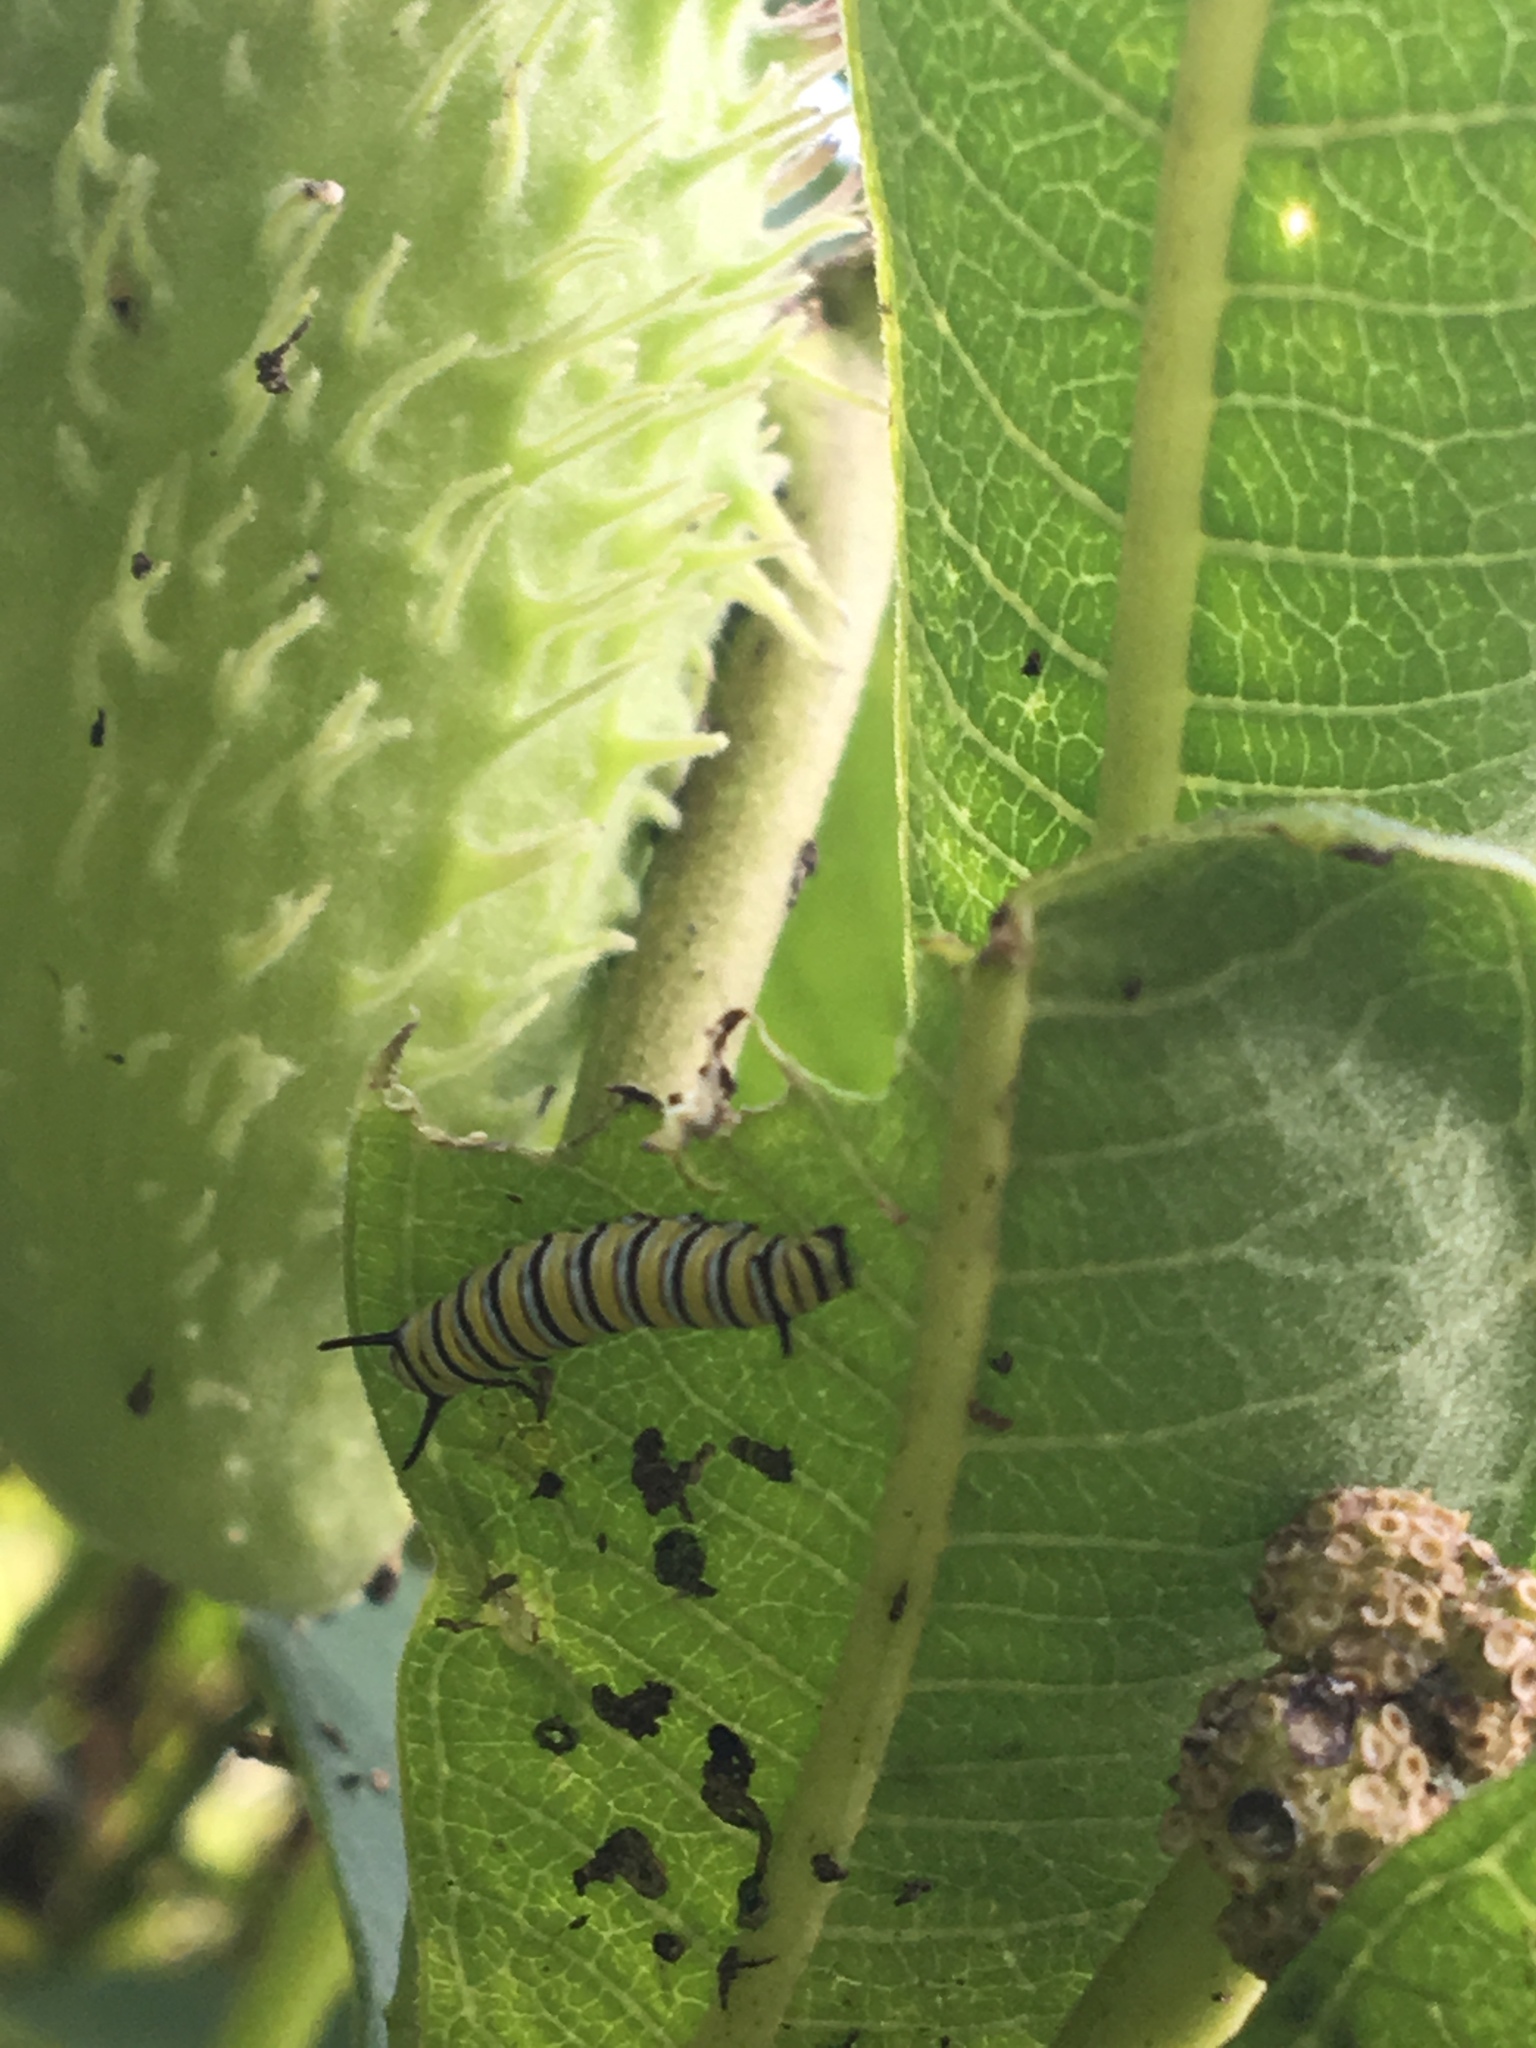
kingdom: Animalia
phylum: Arthropoda
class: Insecta
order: Lepidoptera
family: Nymphalidae
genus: Danaus
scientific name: Danaus plexippus
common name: Monarch
